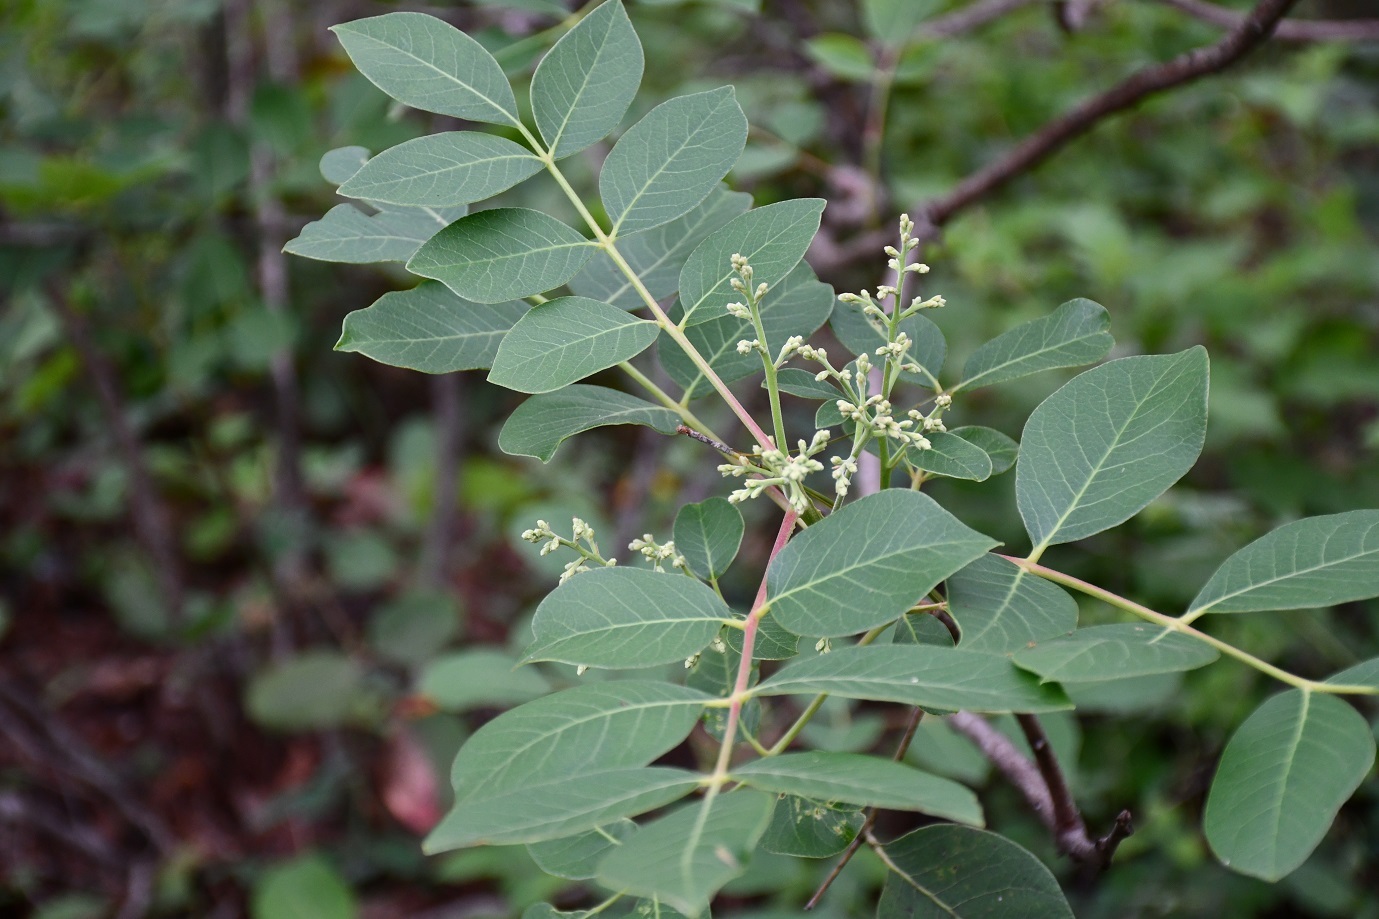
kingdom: Plantae
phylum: Tracheophyta
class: Magnoliopsida
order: Sapindales
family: Anacardiaceae
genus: Rhus
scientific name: Rhus virens
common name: Evergreen sumac
